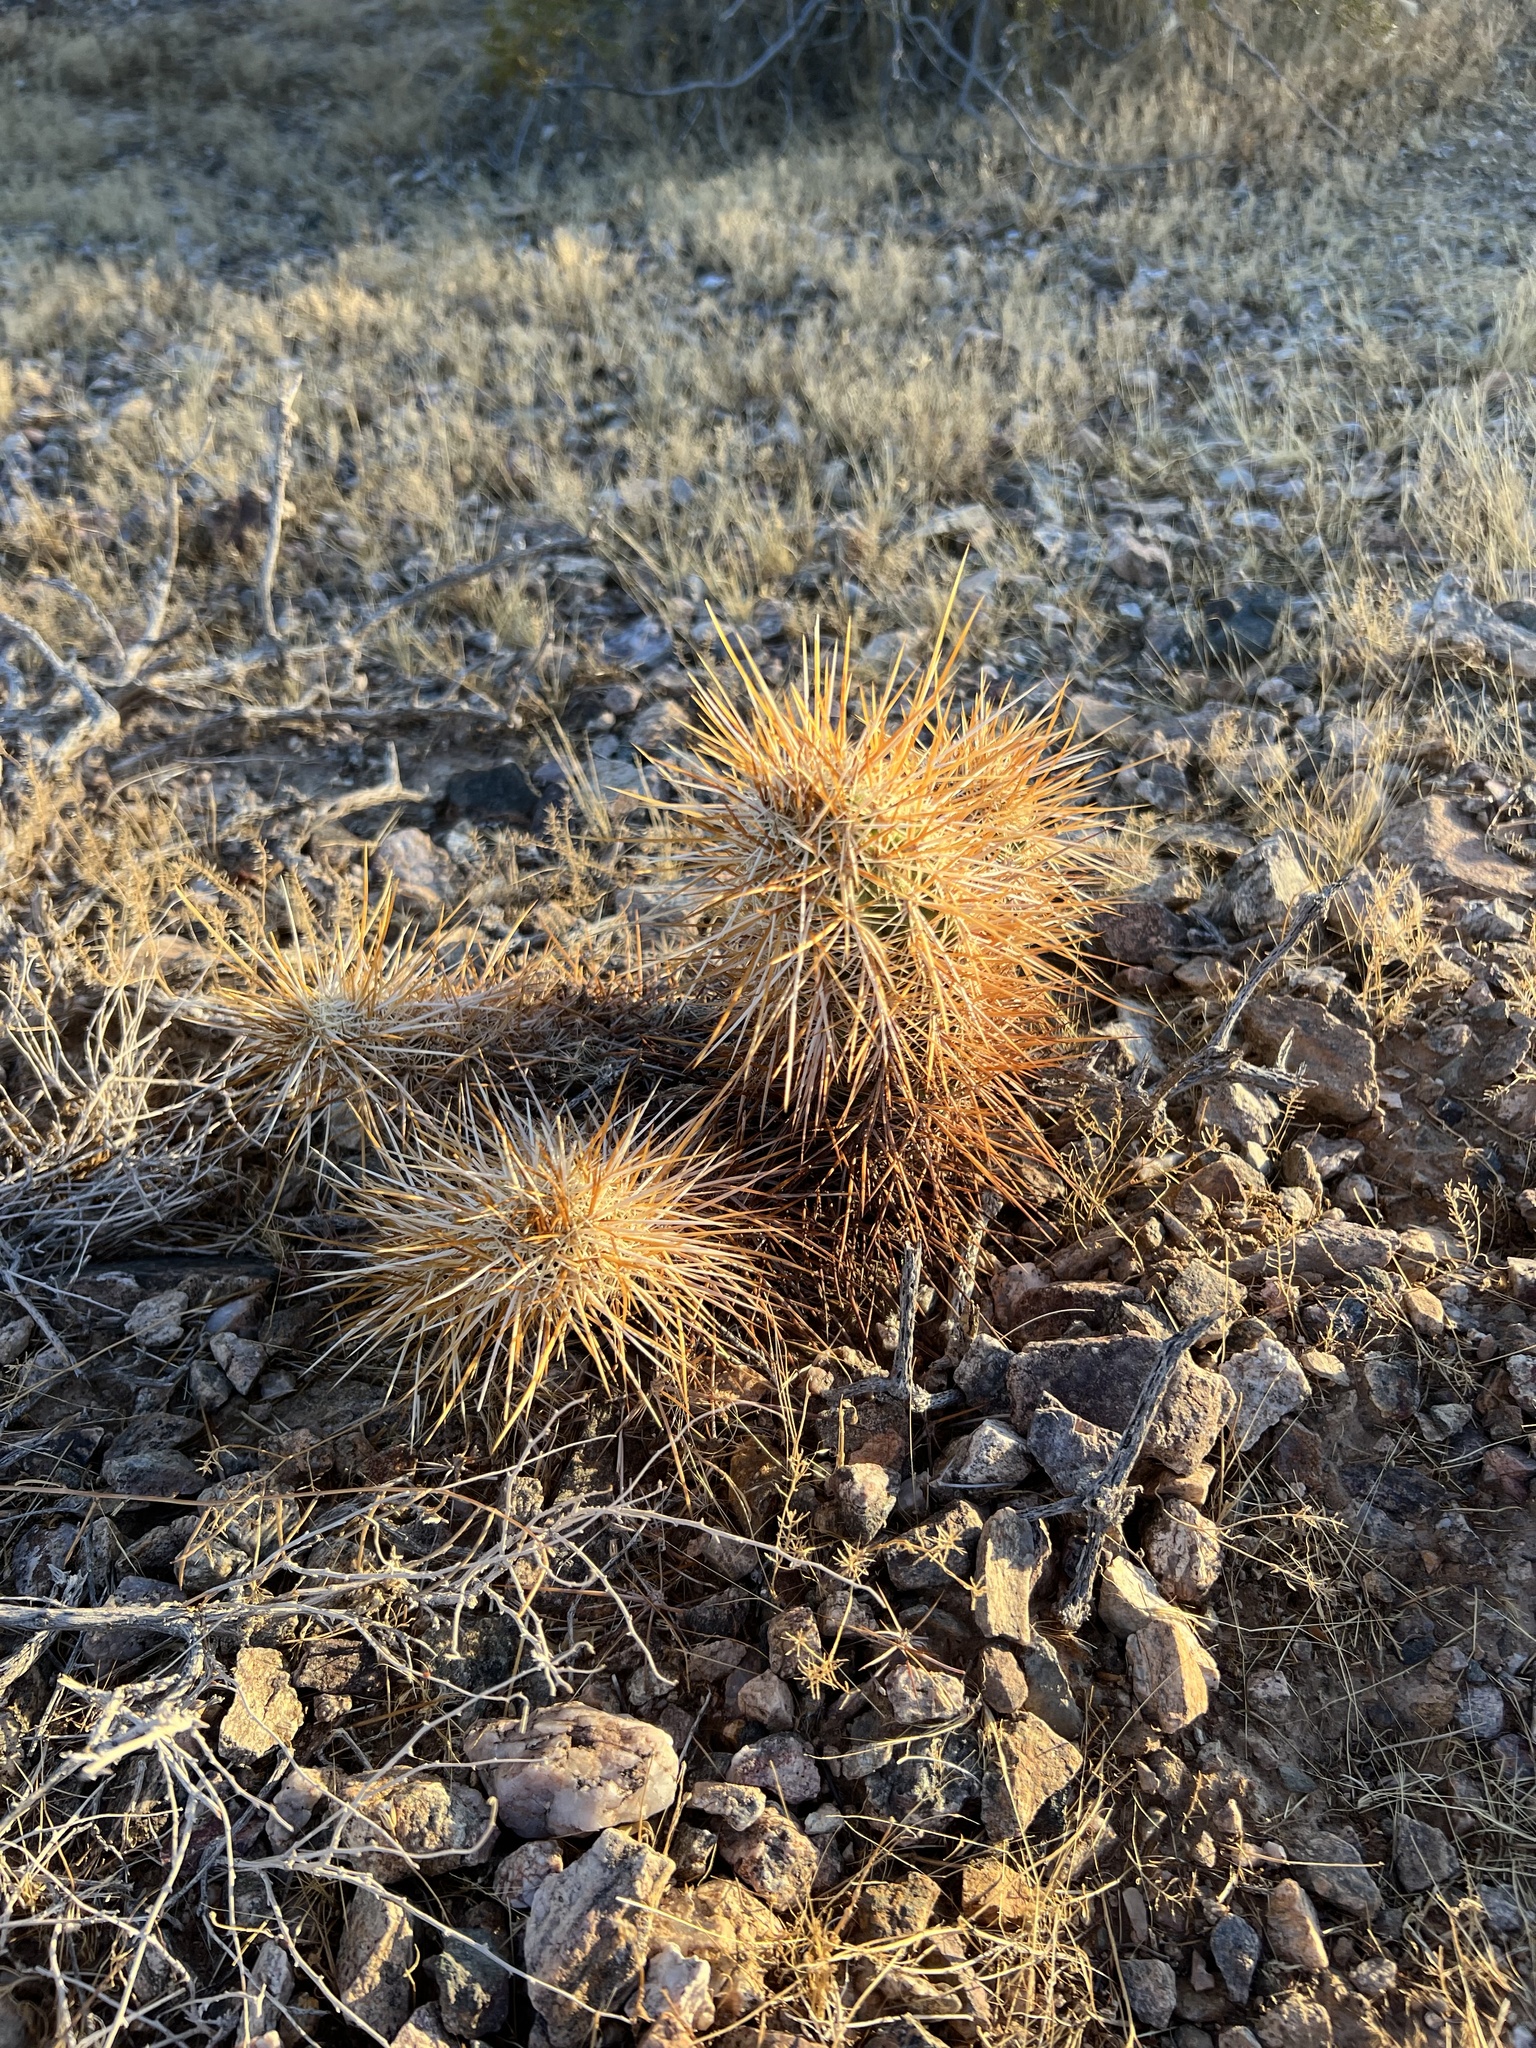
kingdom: Plantae
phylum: Tracheophyta
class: Magnoliopsida
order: Caryophyllales
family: Cactaceae
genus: Echinocereus
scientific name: Echinocereus engelmannii
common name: Engelmann's hedgehog cactus
